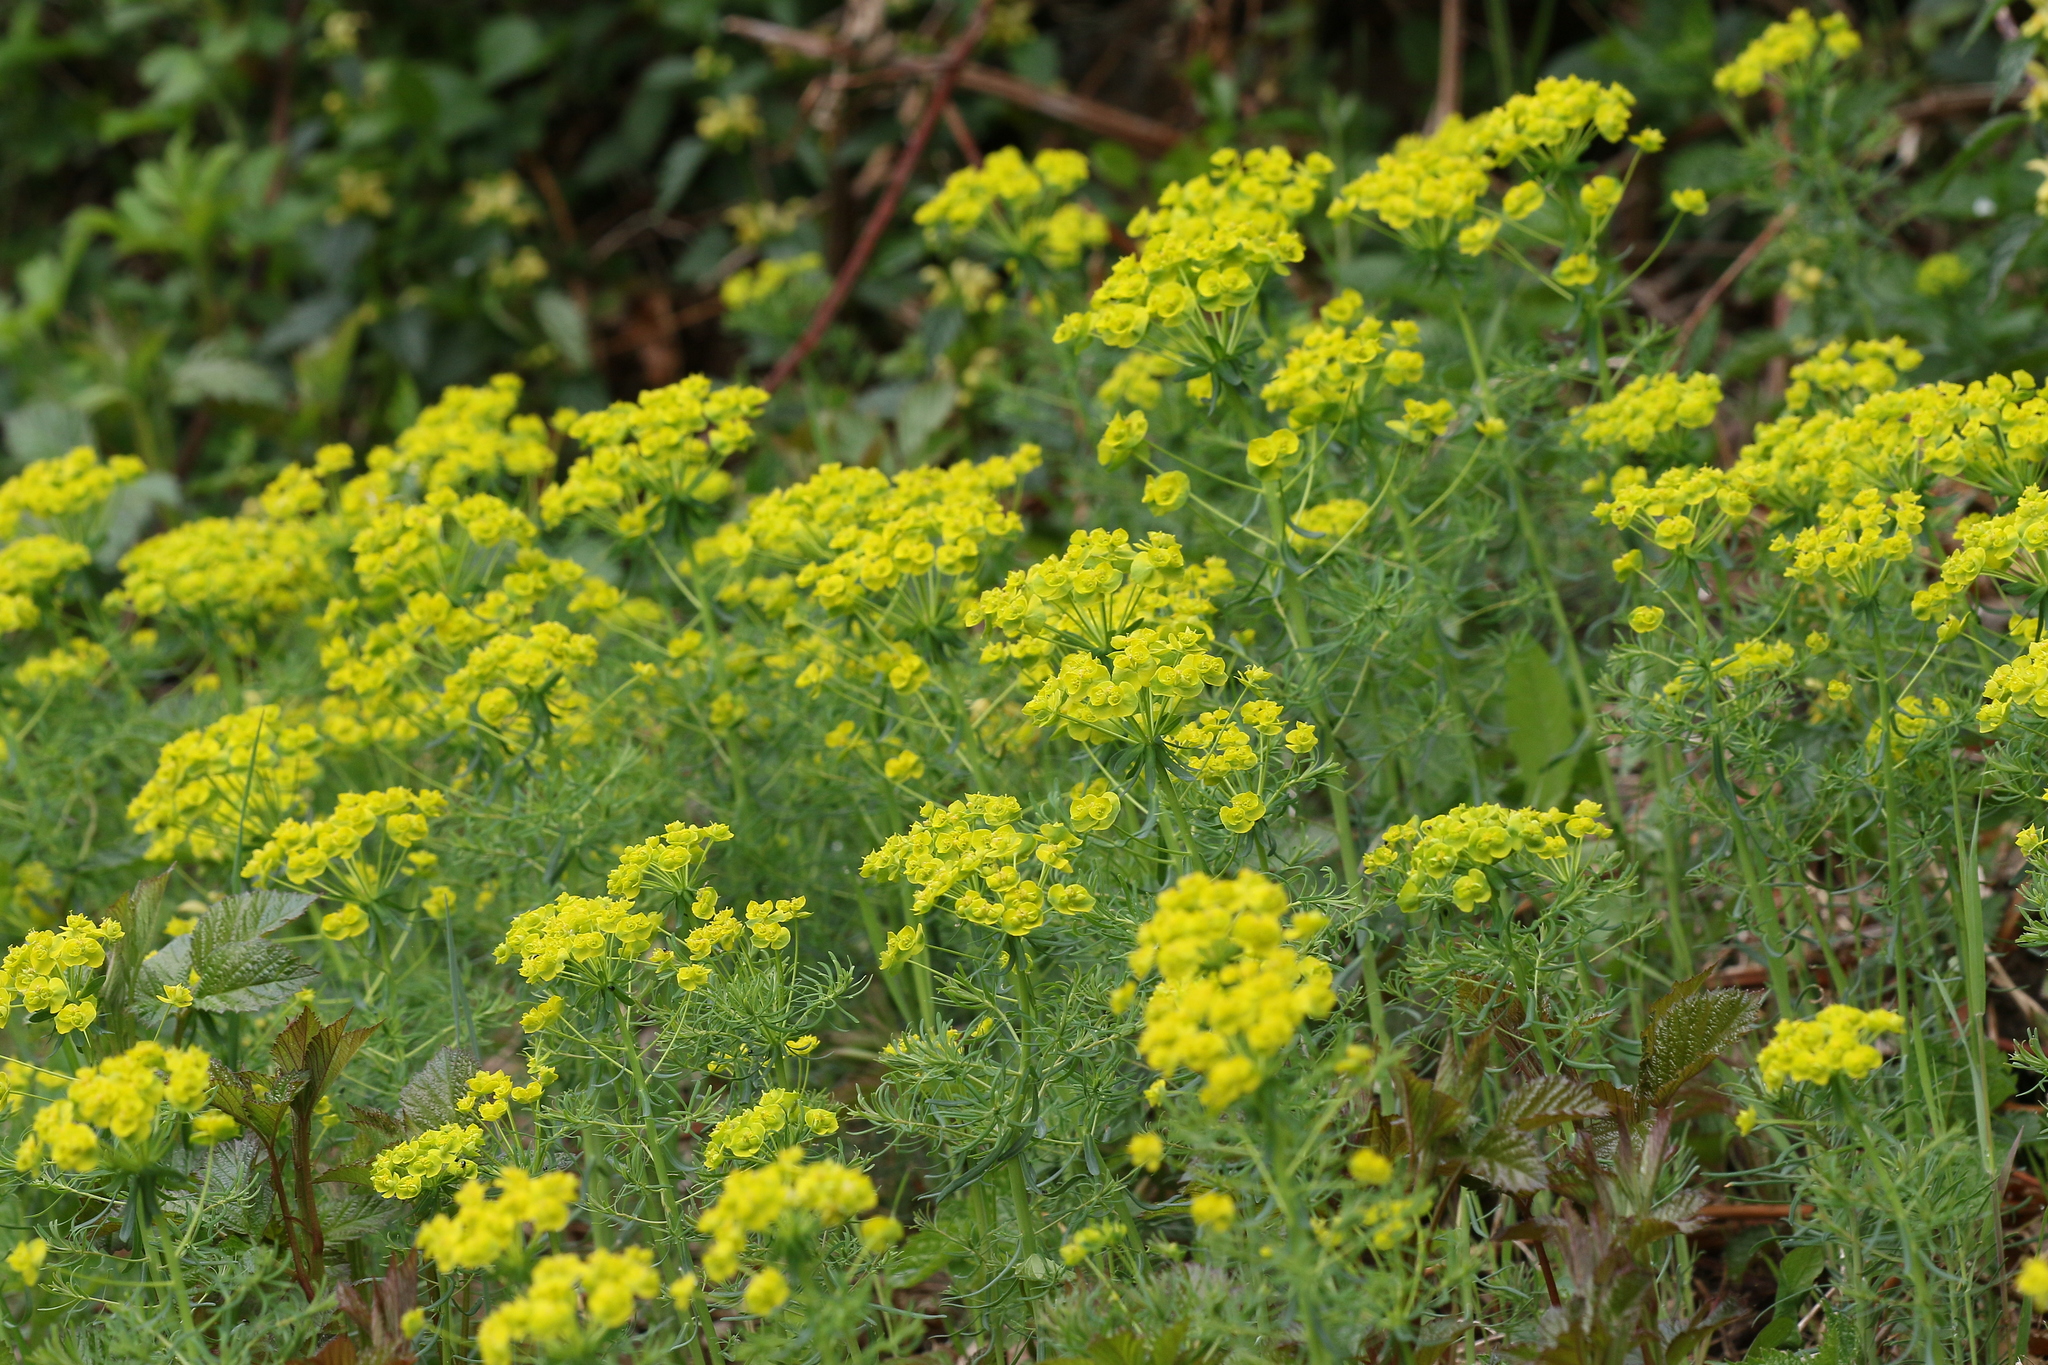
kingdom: Plantae
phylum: Tracheophyta
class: Magnoliopsida
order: Malpighiales
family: Euphorbiaceae
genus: Euphorbia
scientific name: Euphorbia cyparissias
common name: Cypress spurge
